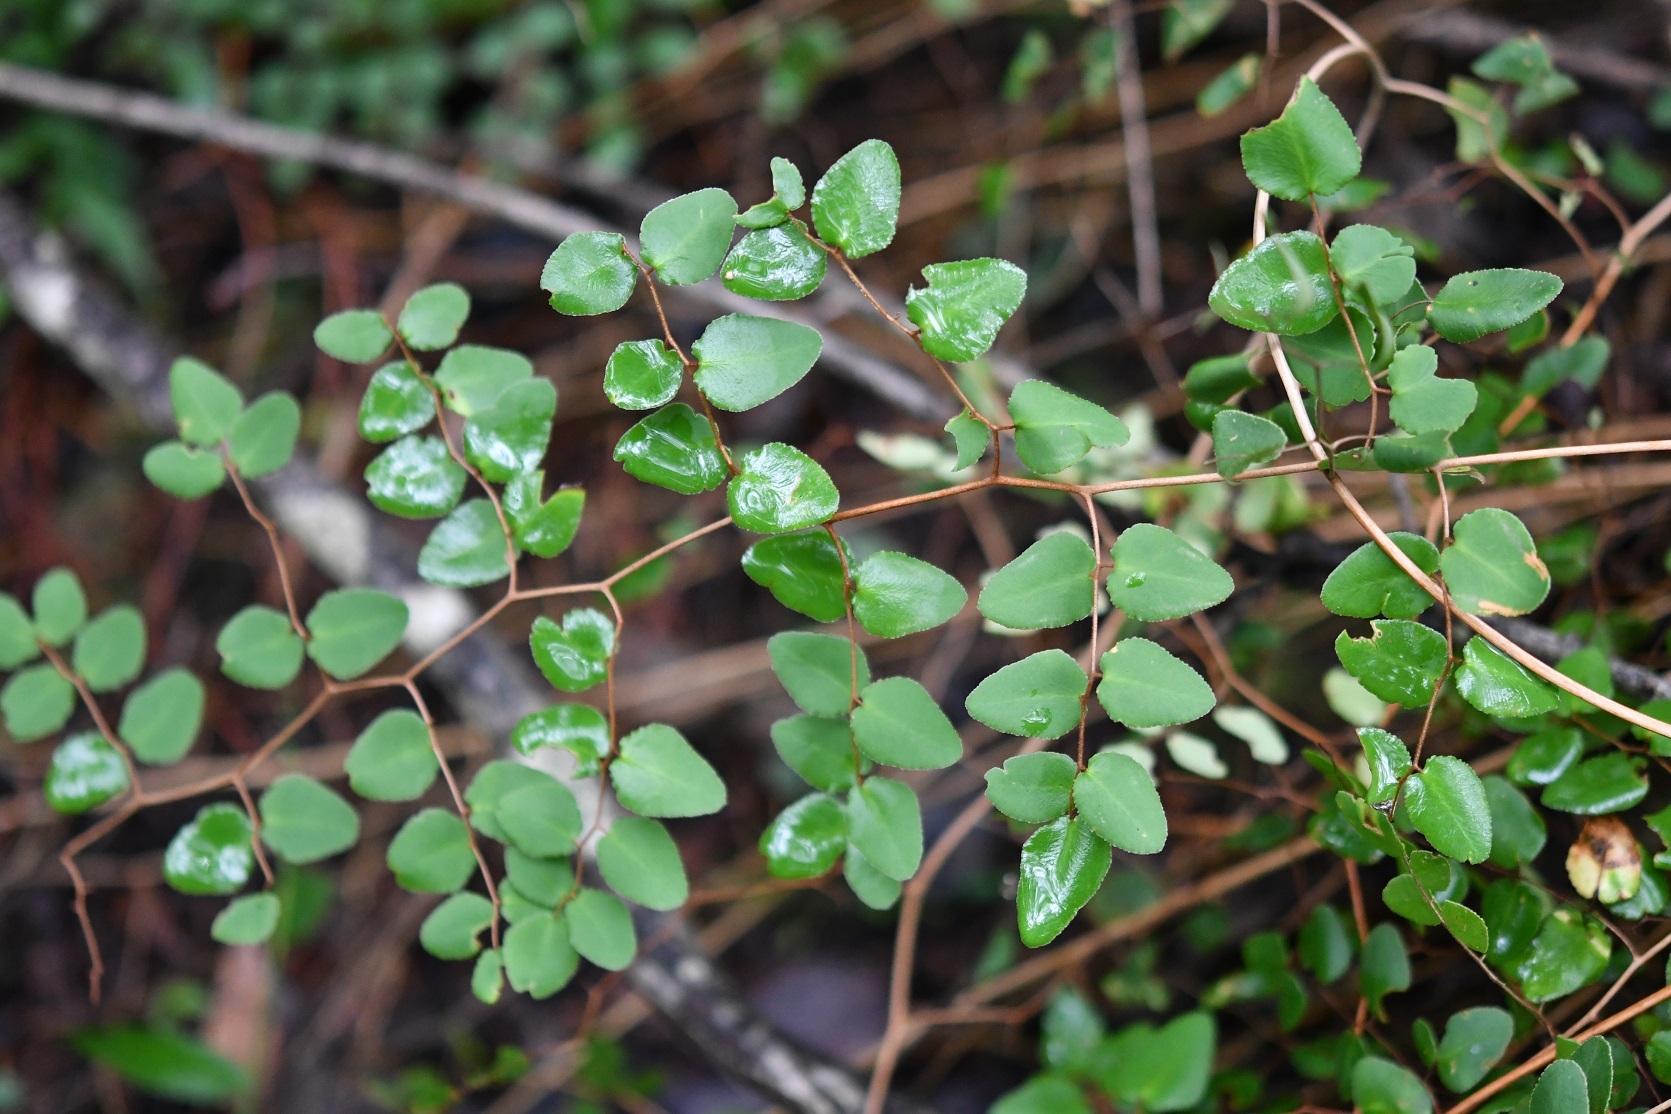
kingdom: Plantae
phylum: Tracheophyta
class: Polypodiopsida
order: Polypodiales
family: Pteridaceae
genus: Pellaea
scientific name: Pellaea ovata
